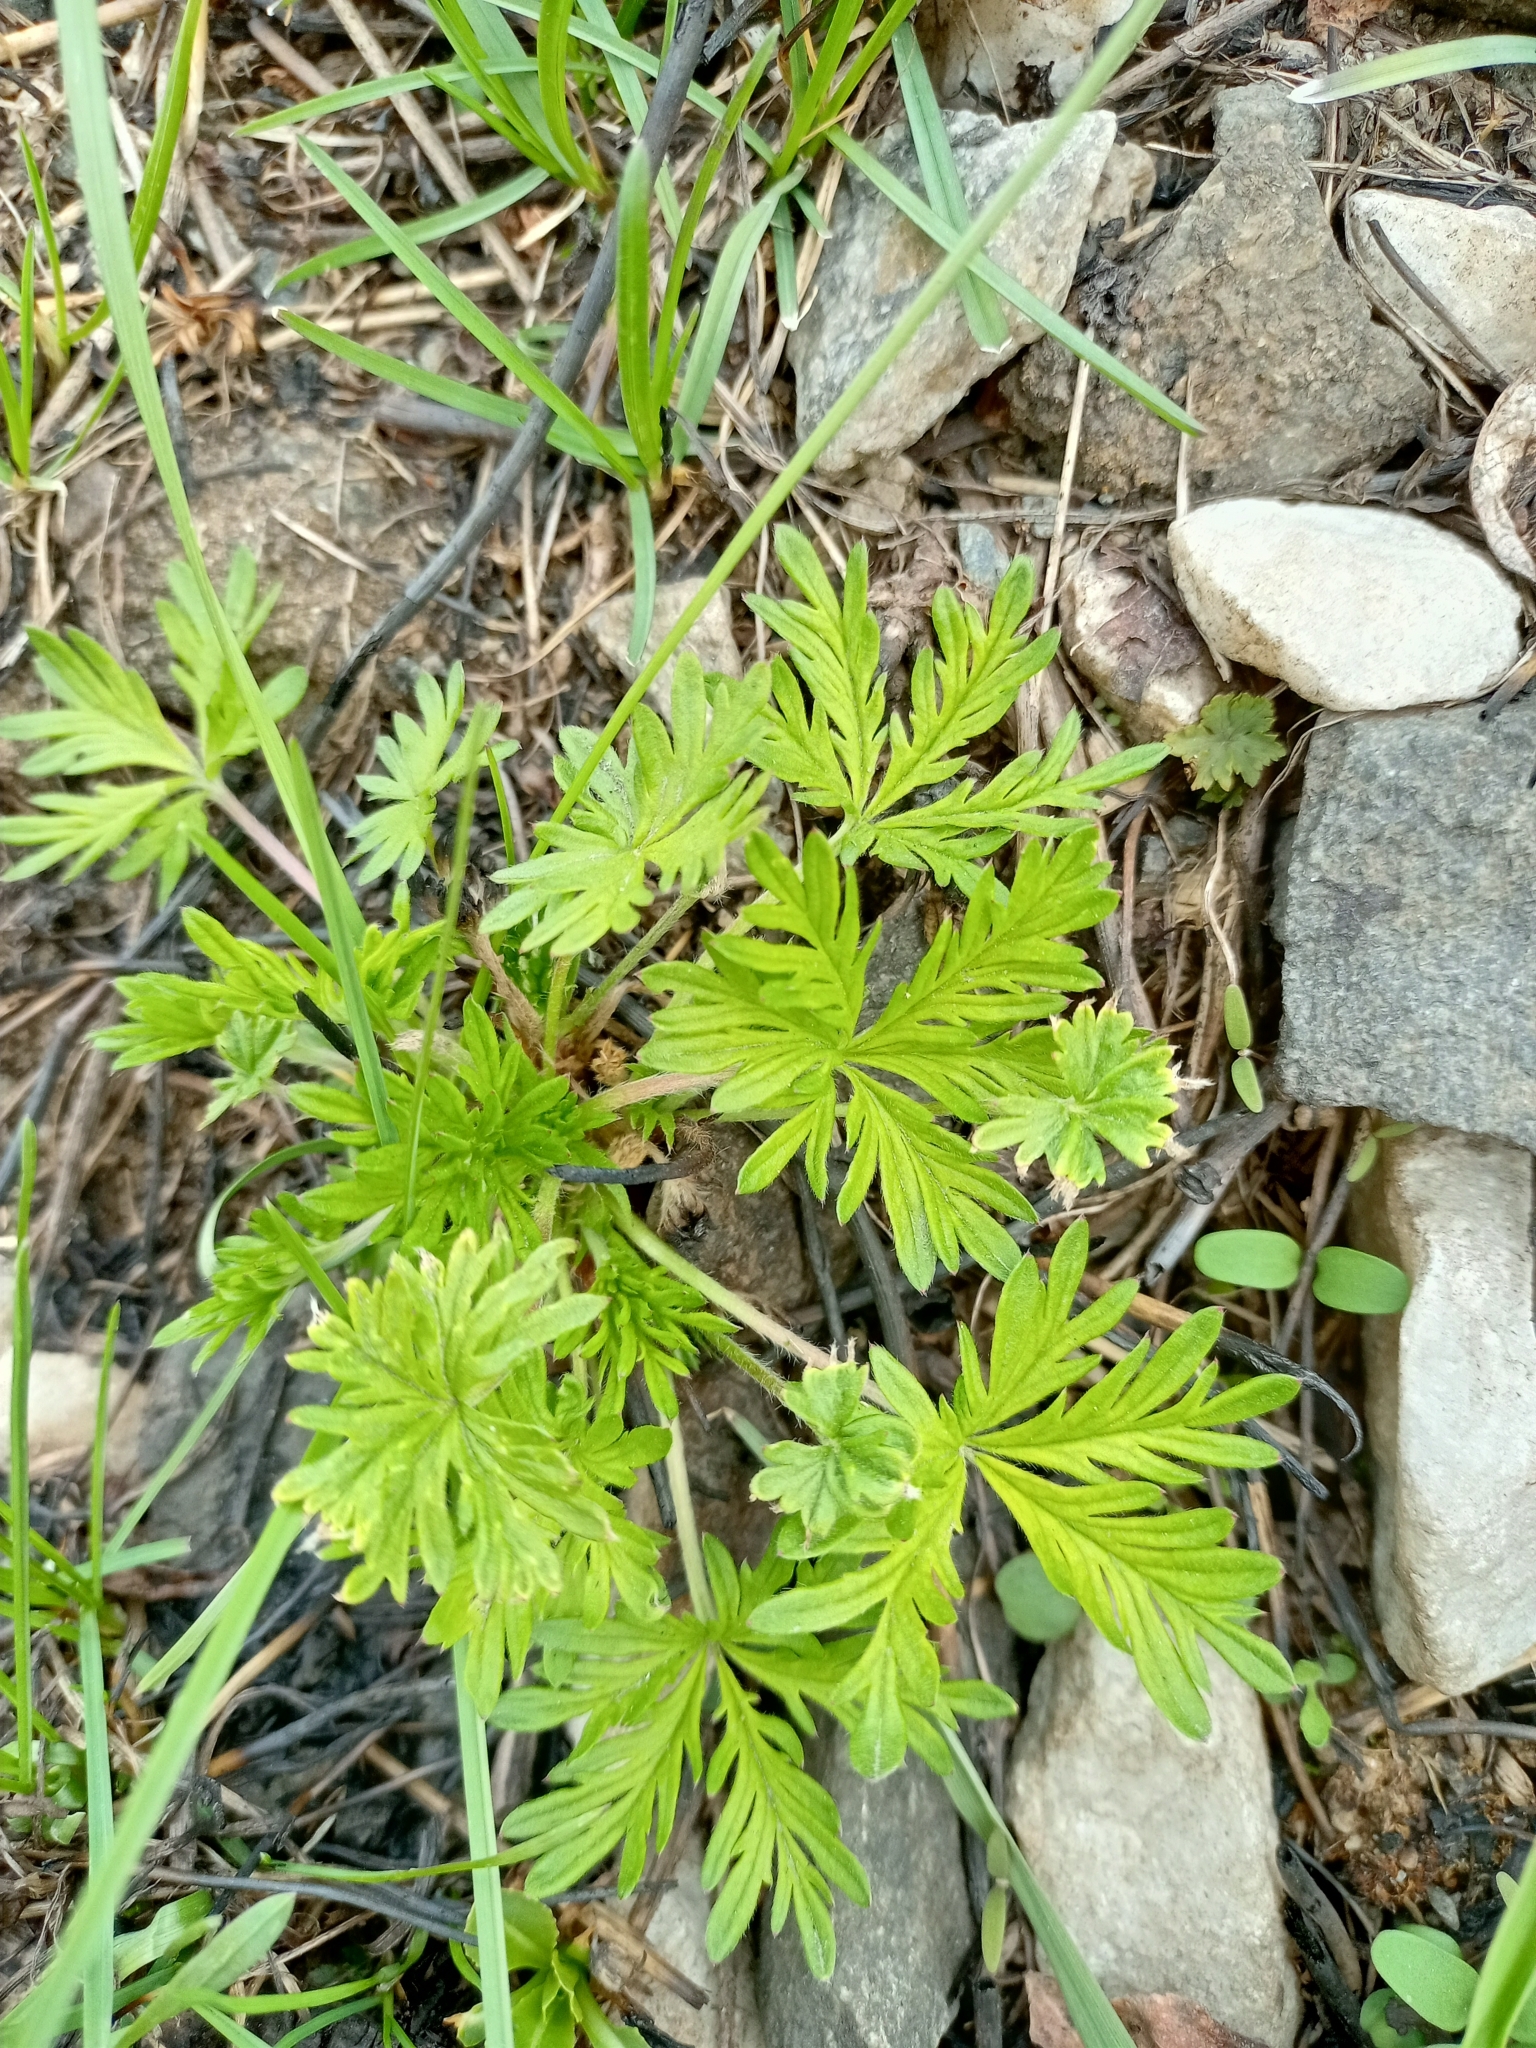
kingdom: Plantae
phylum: Tracheophyta
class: Magnoliopsida
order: Rosales
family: Rosaceae
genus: Potentilla
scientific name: Potentilla angarensis
